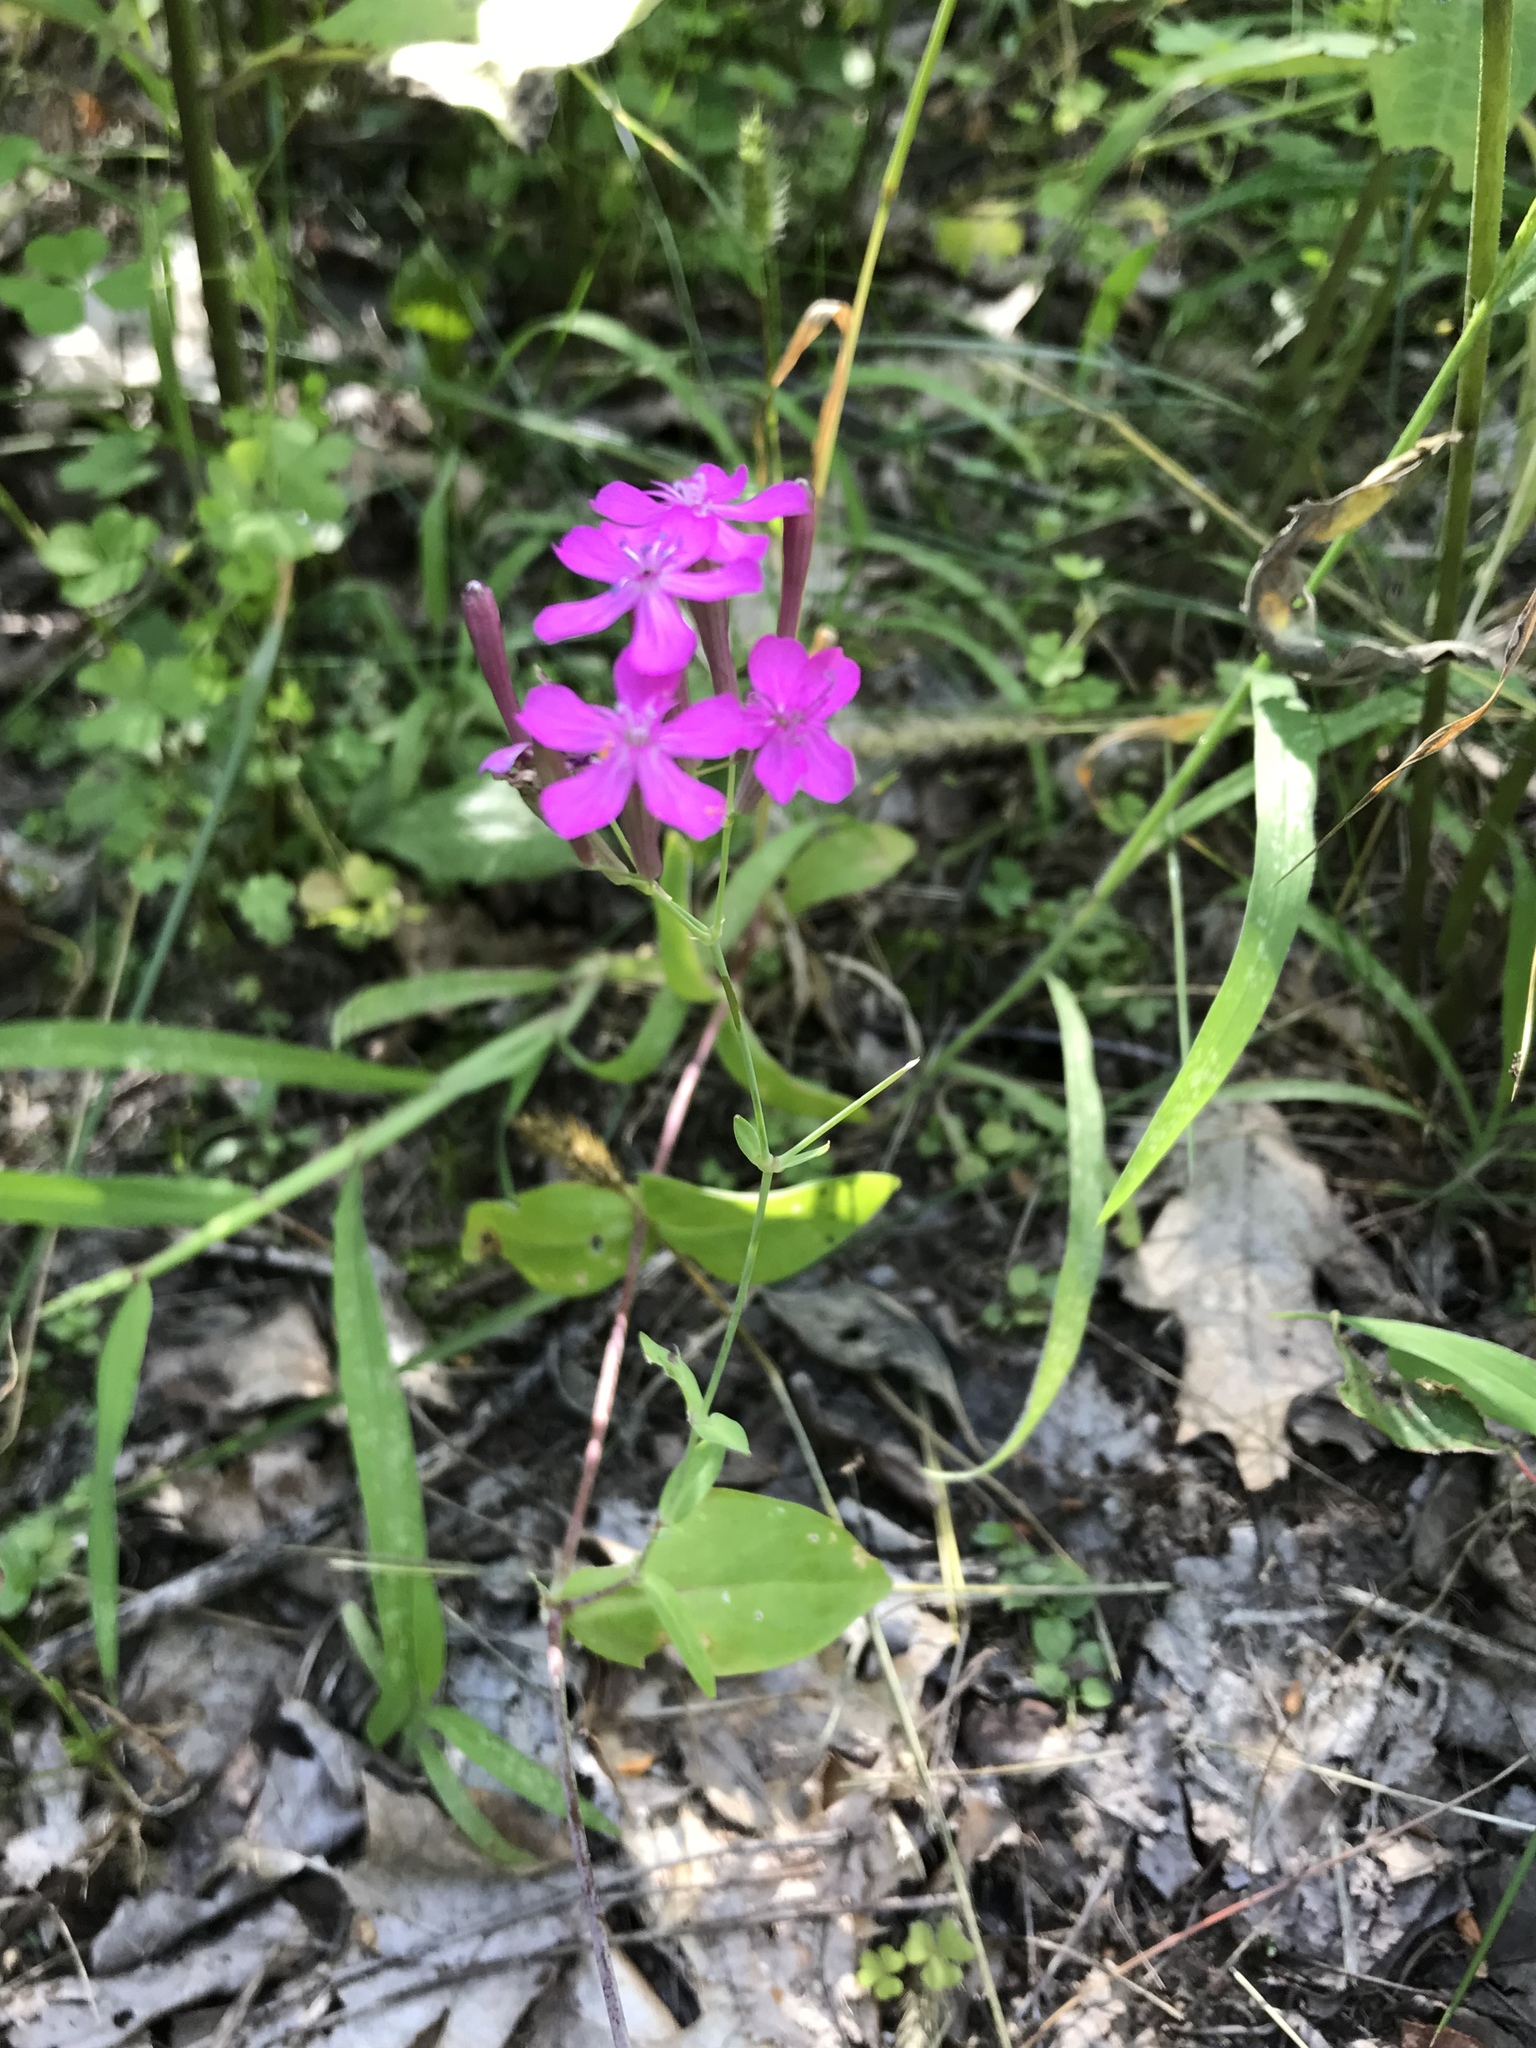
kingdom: Plantae
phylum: Tracheophyta
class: Magnoliopsida
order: Caryophyllales
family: Caryophyllaceae
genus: Atocion
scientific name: Atocion armeria
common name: Sweet william catchfly
